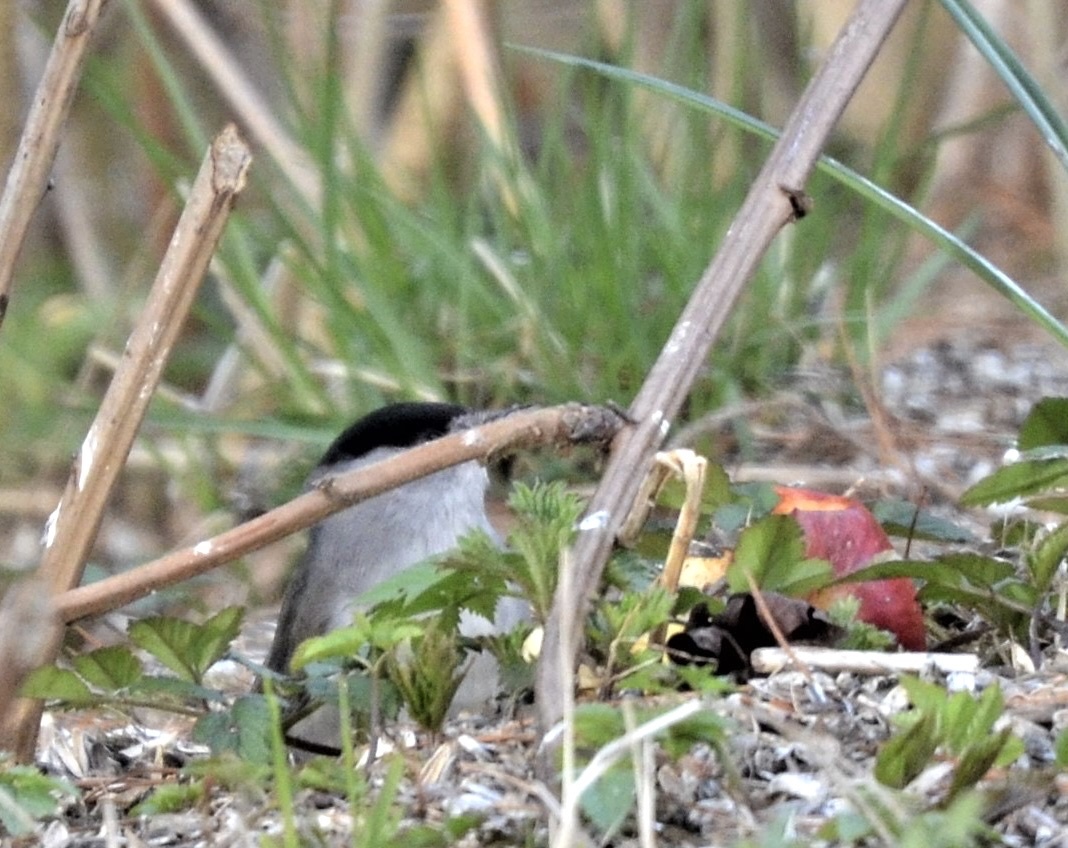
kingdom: Animalia
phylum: Chordata
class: Aves
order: Passeriformes
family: Sylviidae
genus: Sylvia
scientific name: Sylvia atricapilla
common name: Eurasian blackcap
